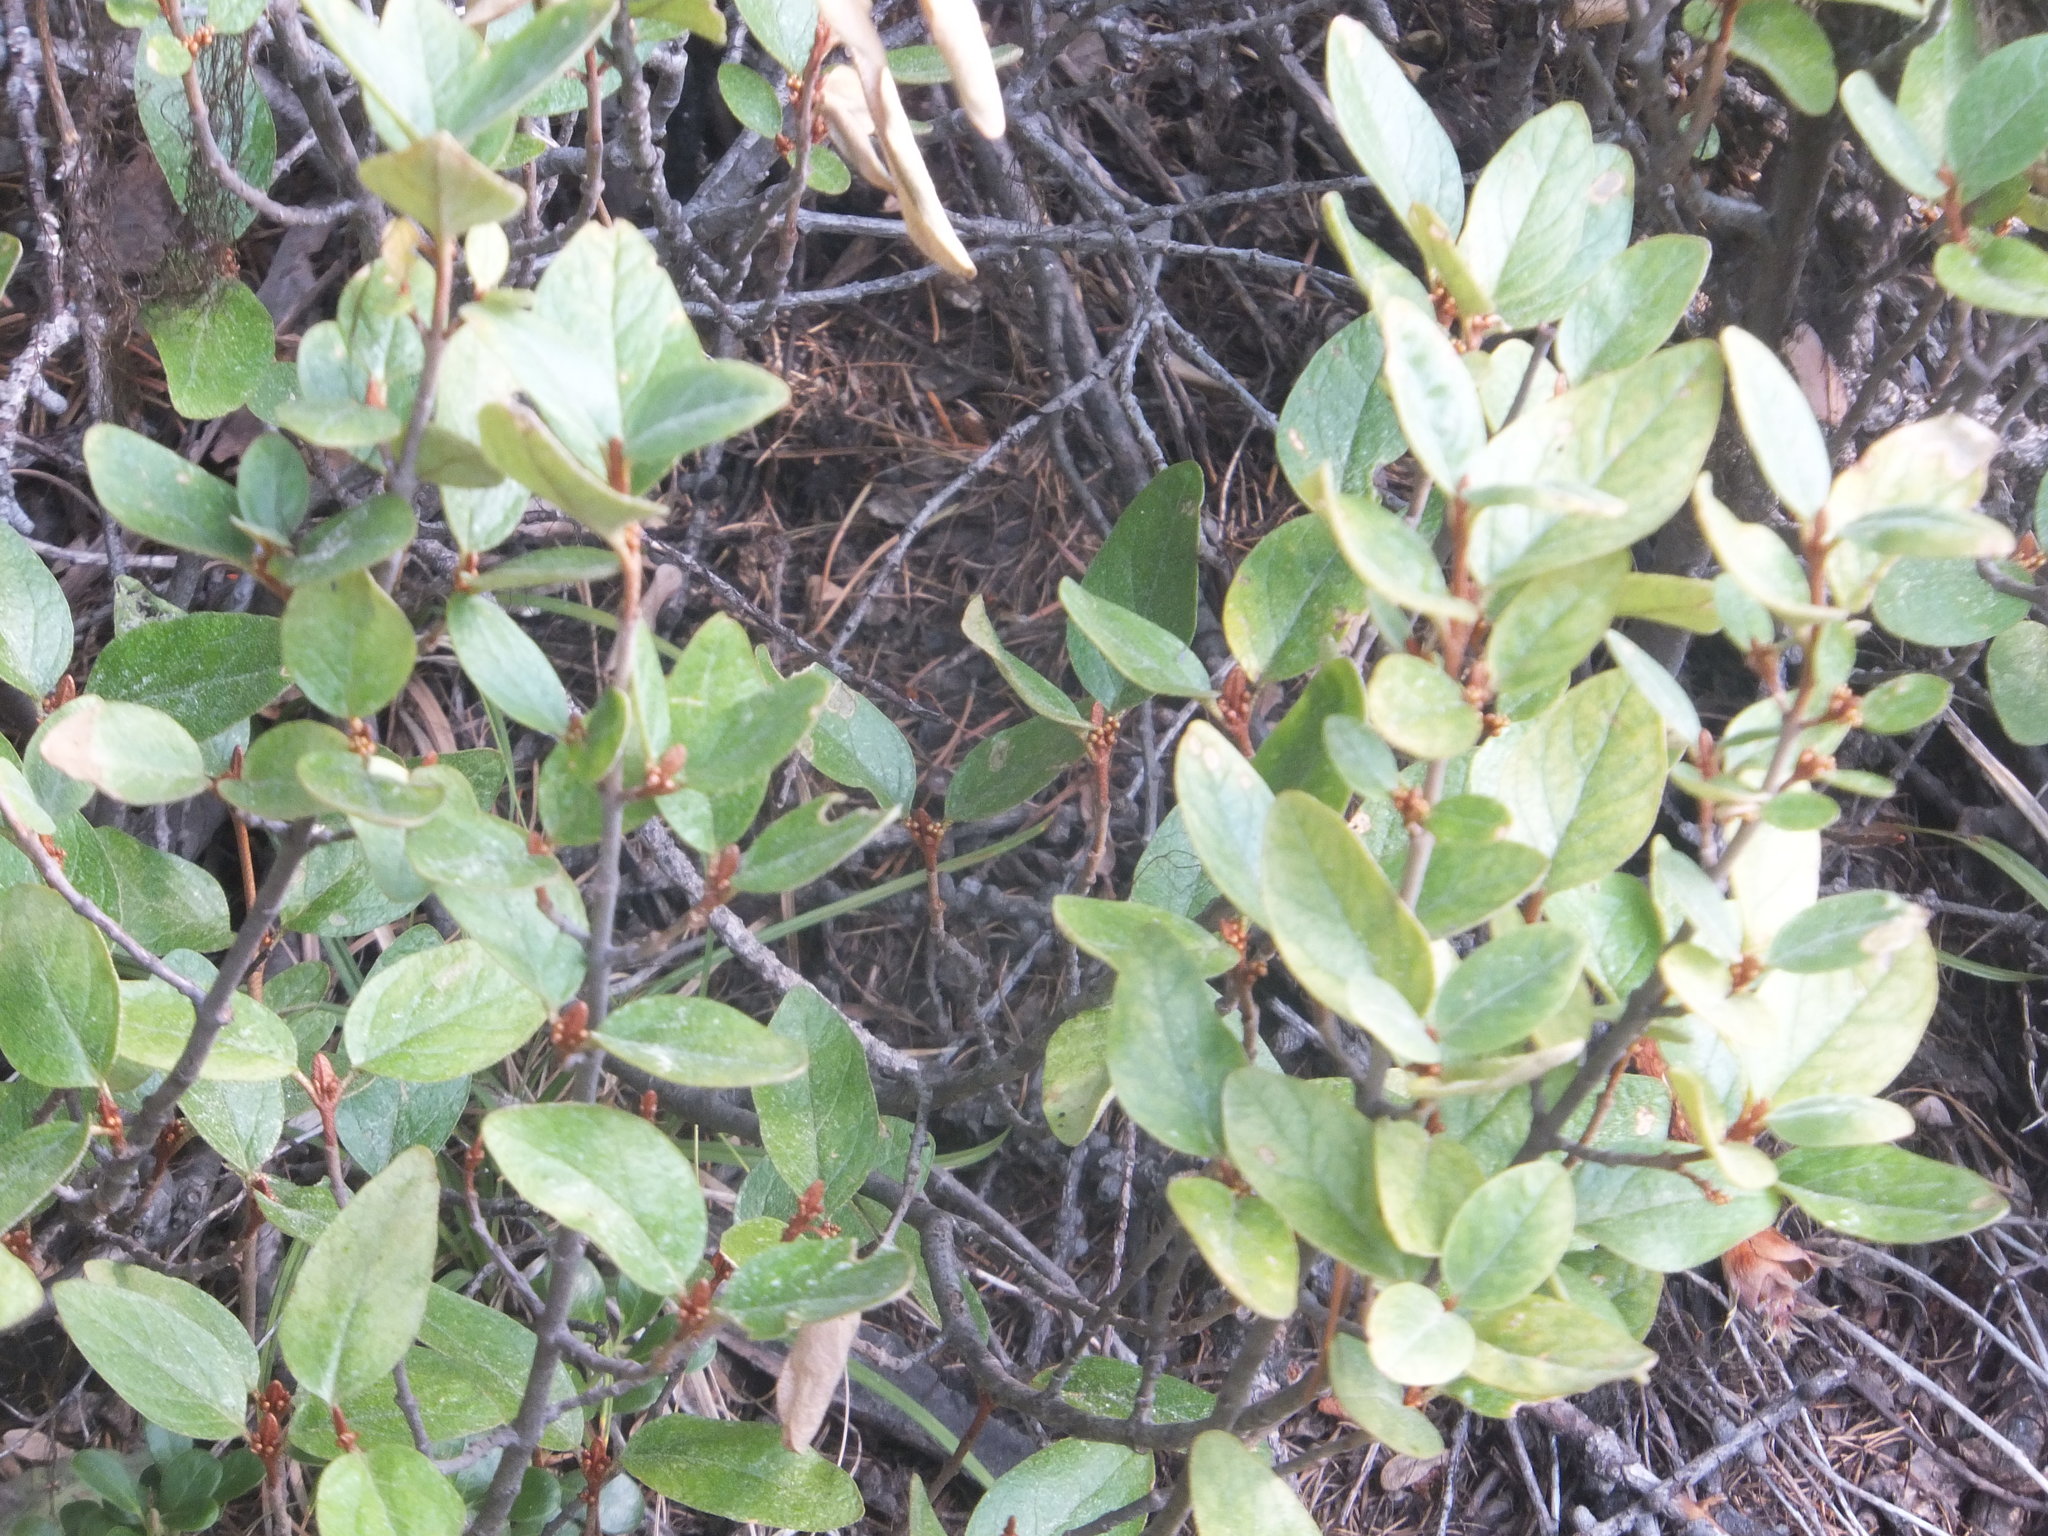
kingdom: Plantae
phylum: Tracheophyta
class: Magnoliopsida
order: Rosales
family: Elaeagnaceae
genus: Shepherdia
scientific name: Shepherdia canadensis
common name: Soapberry
